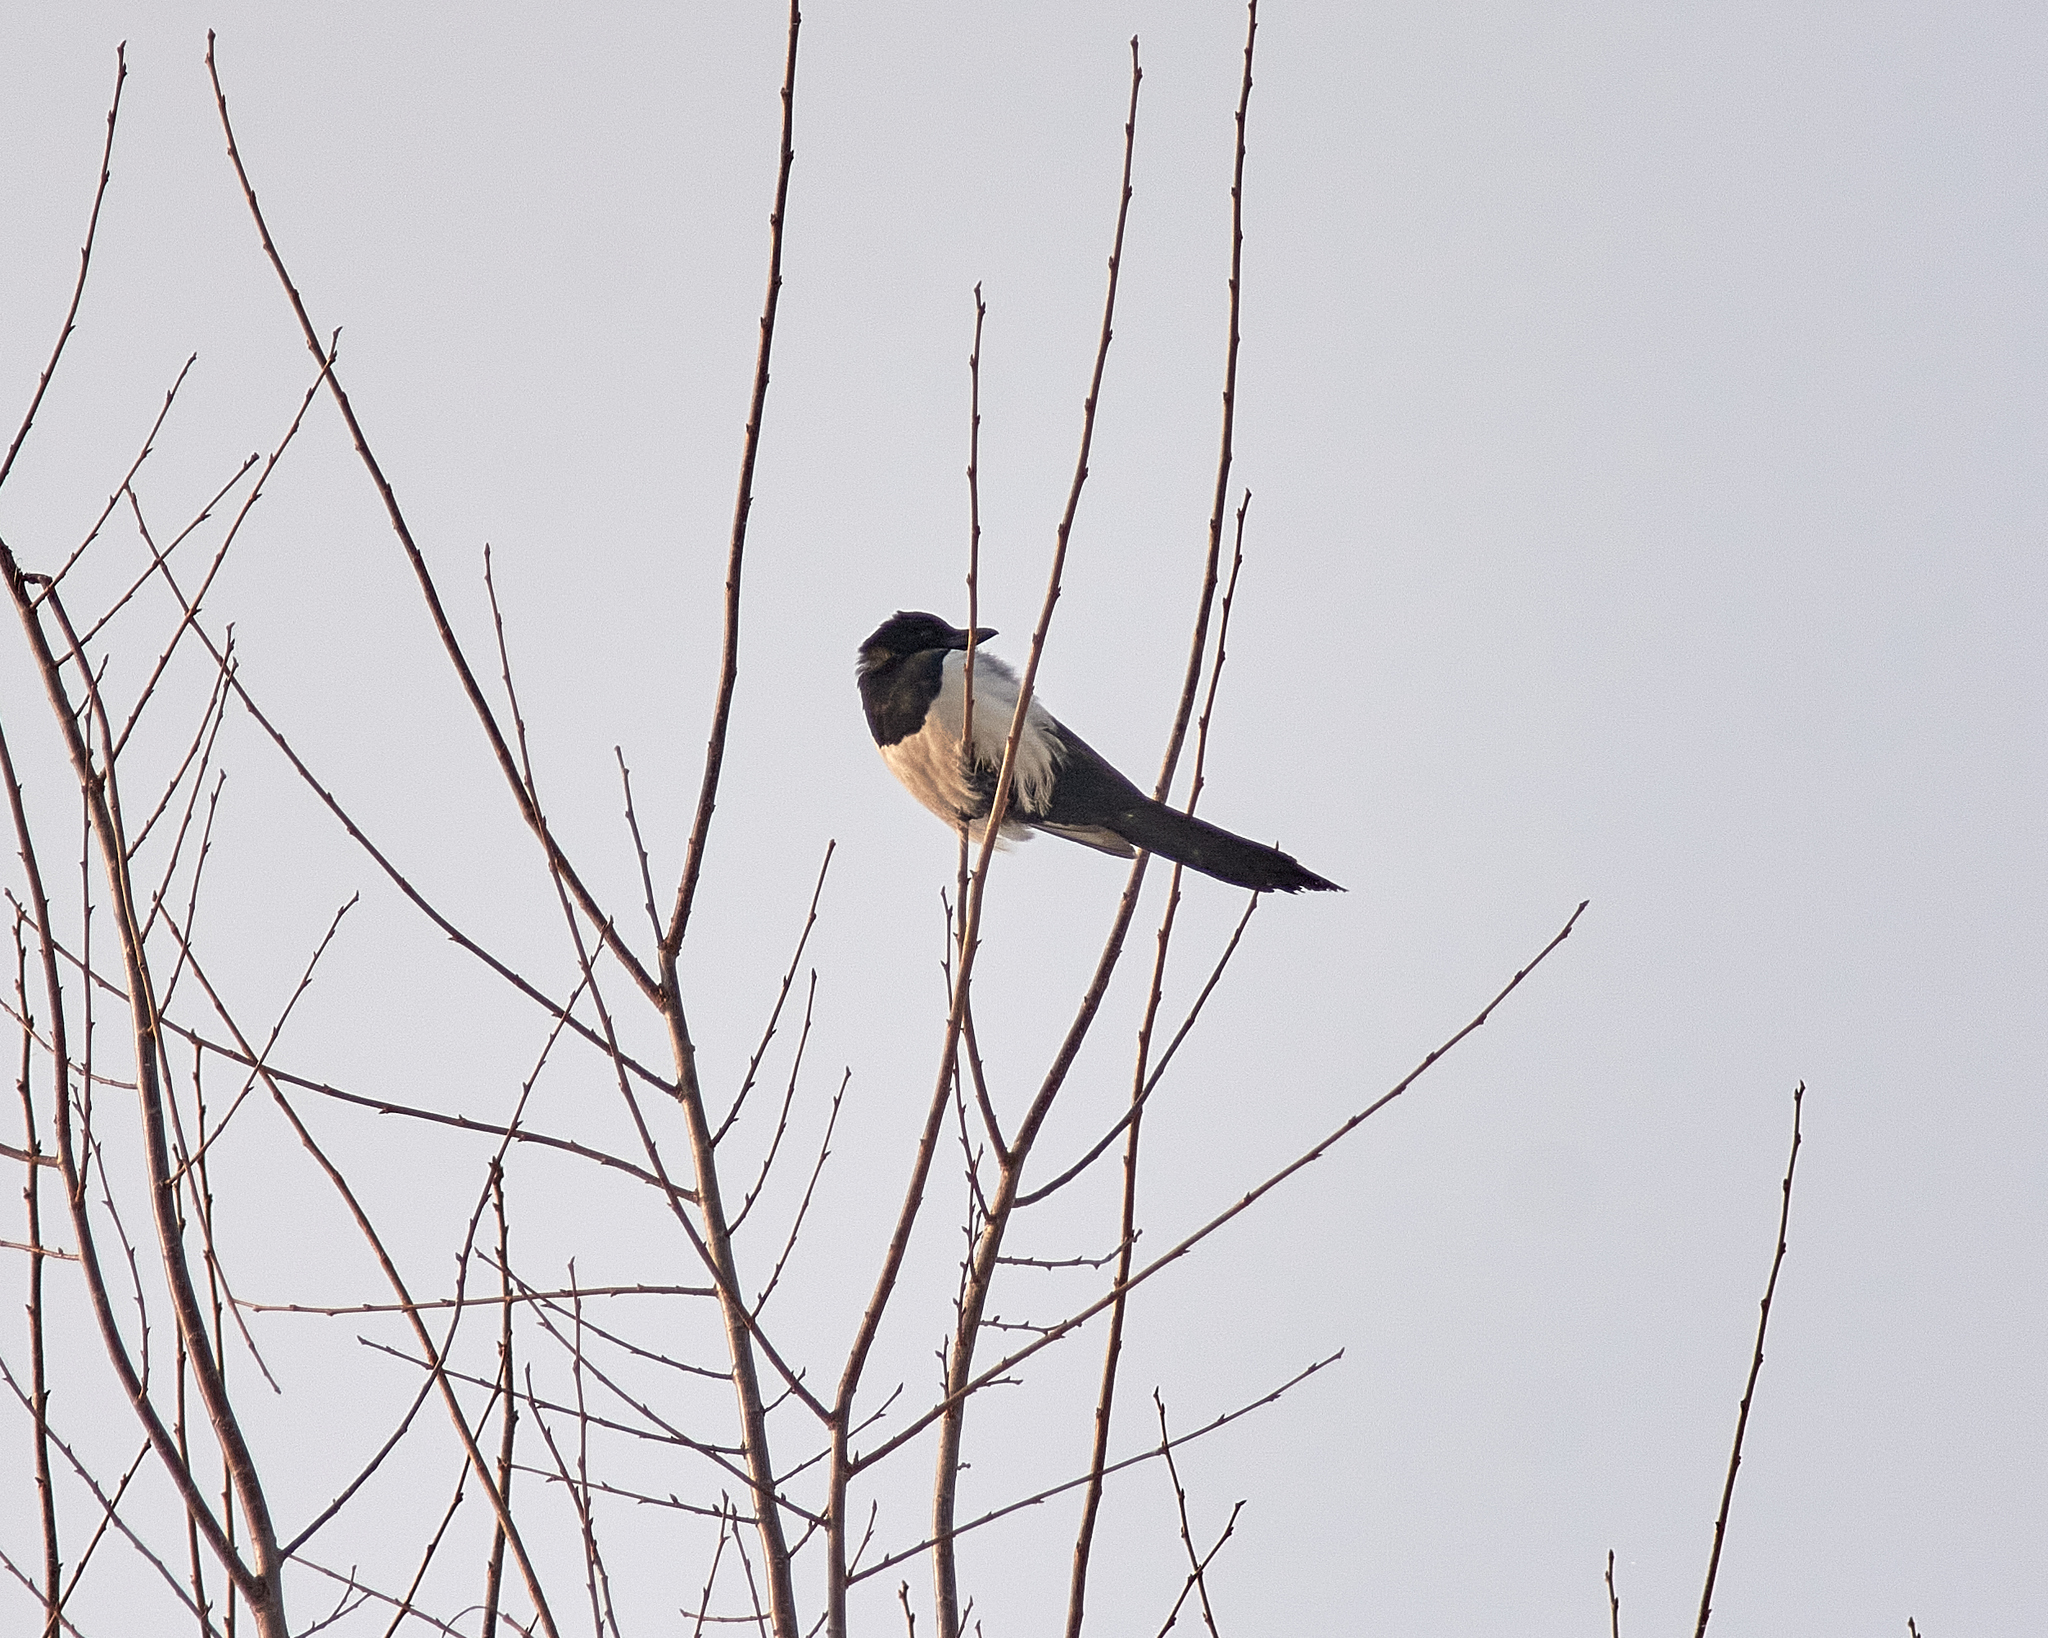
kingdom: Animalia
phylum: Chordata
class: Aves
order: Passeriformes
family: Corvidae
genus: Pica
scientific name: Pica pica
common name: Eurasian magpie
